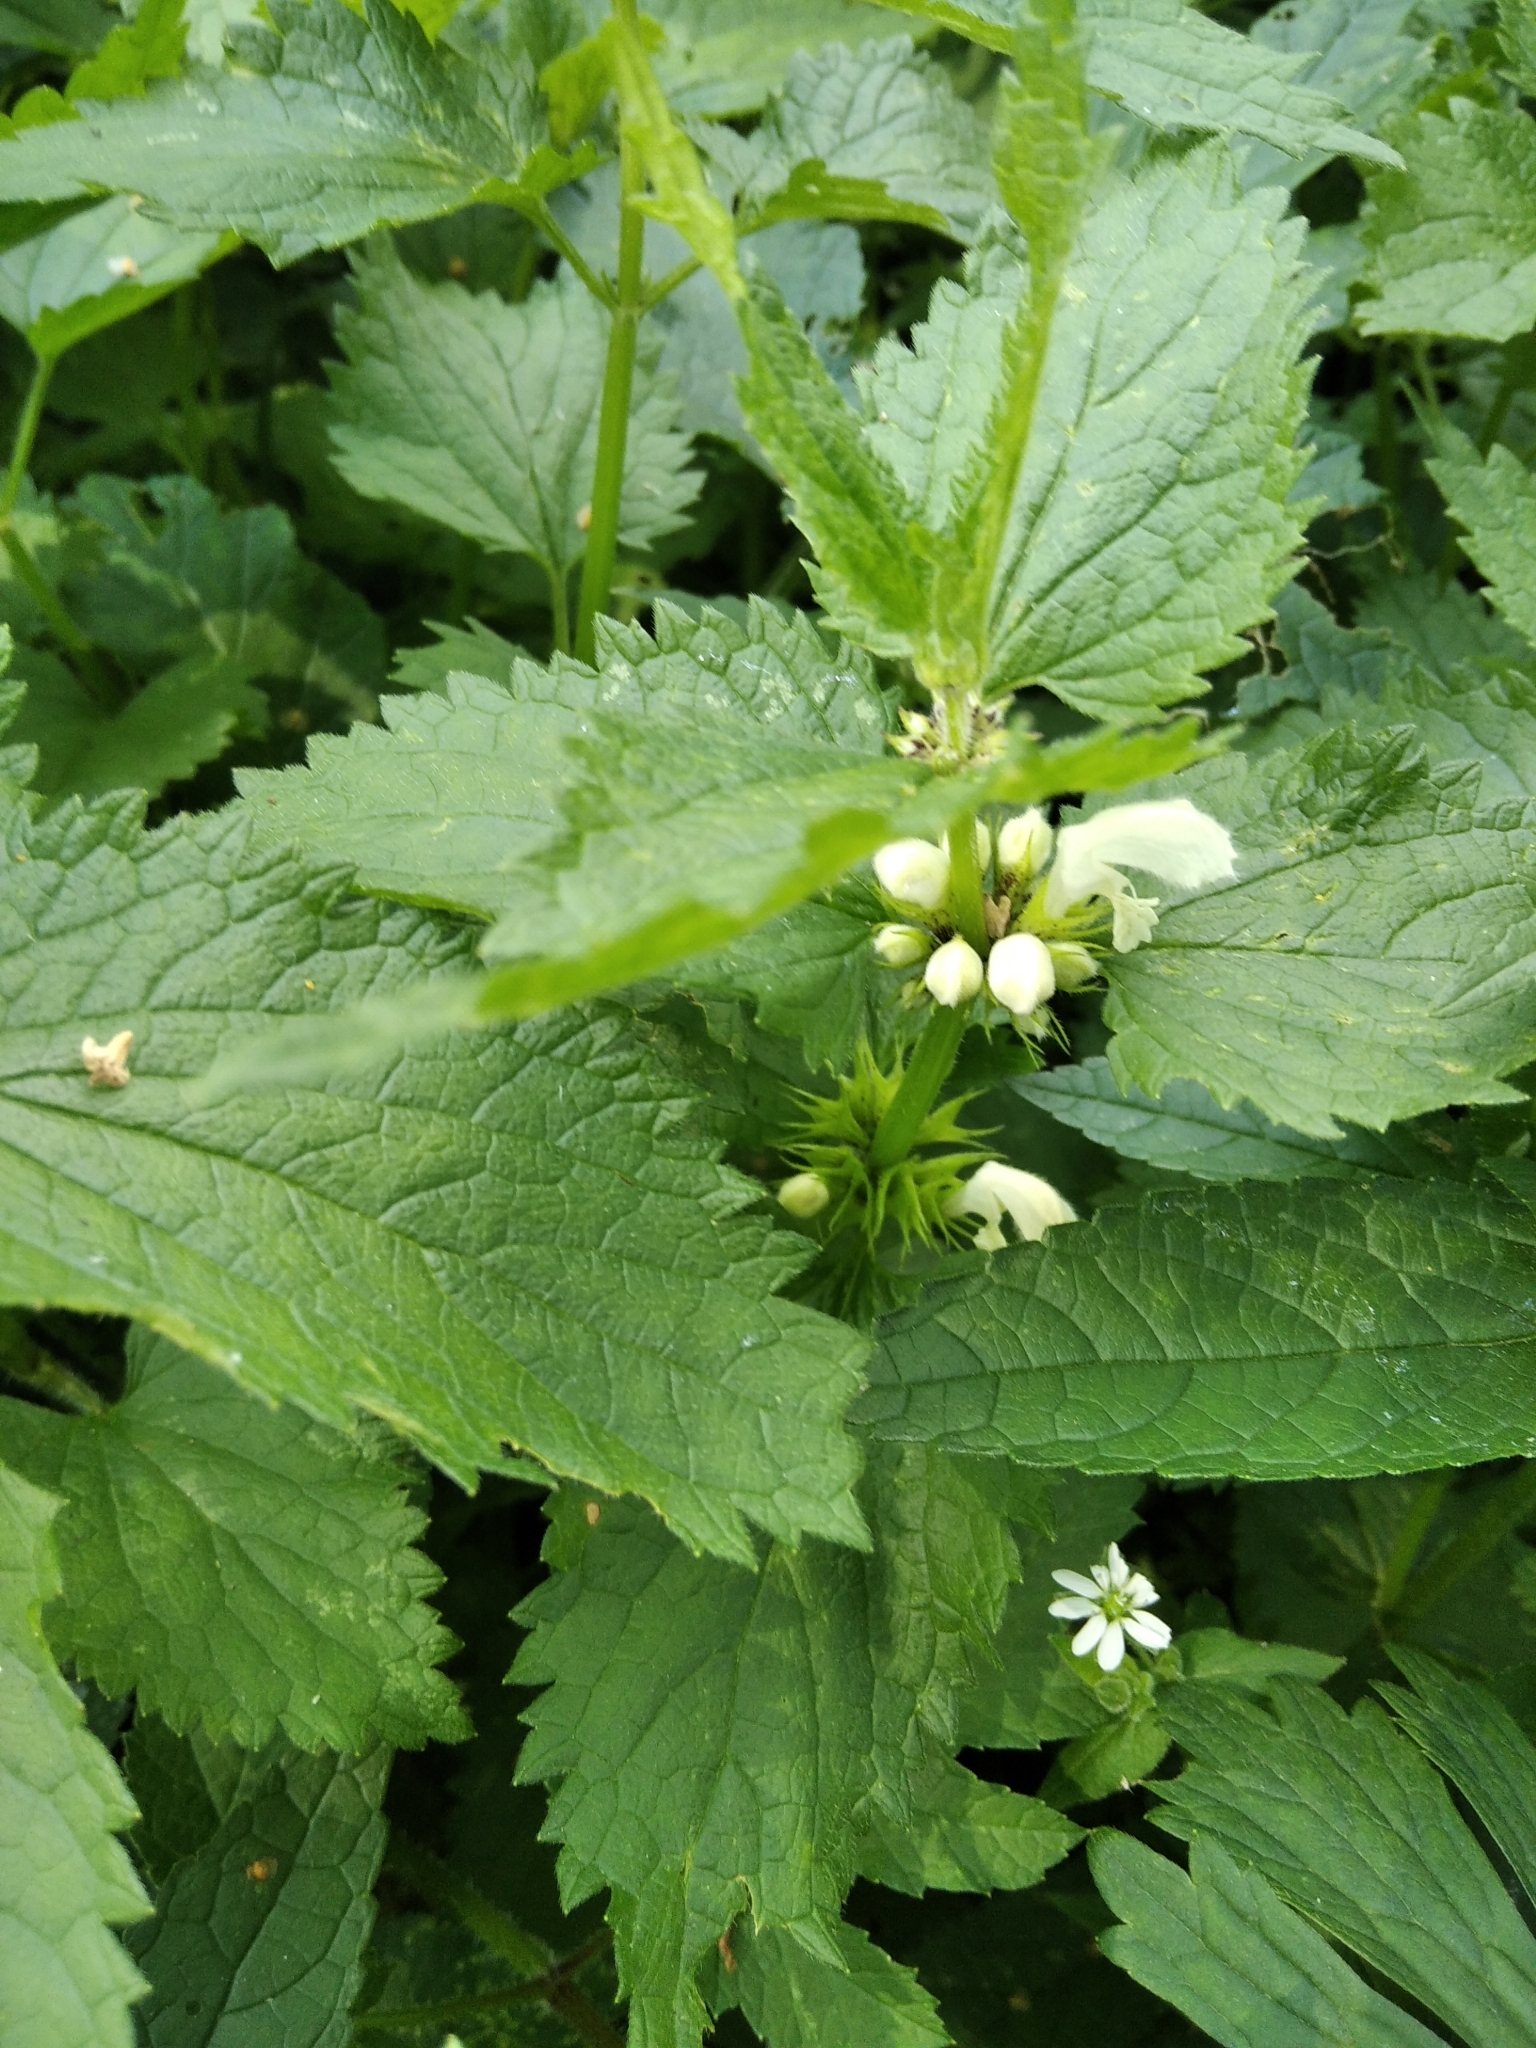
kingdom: Plantae
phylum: Tracheophyta
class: Magnoliopsida
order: Lamiales
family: Lamiaceae
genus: Lamium
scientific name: Lamium album
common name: White dead-nettle
